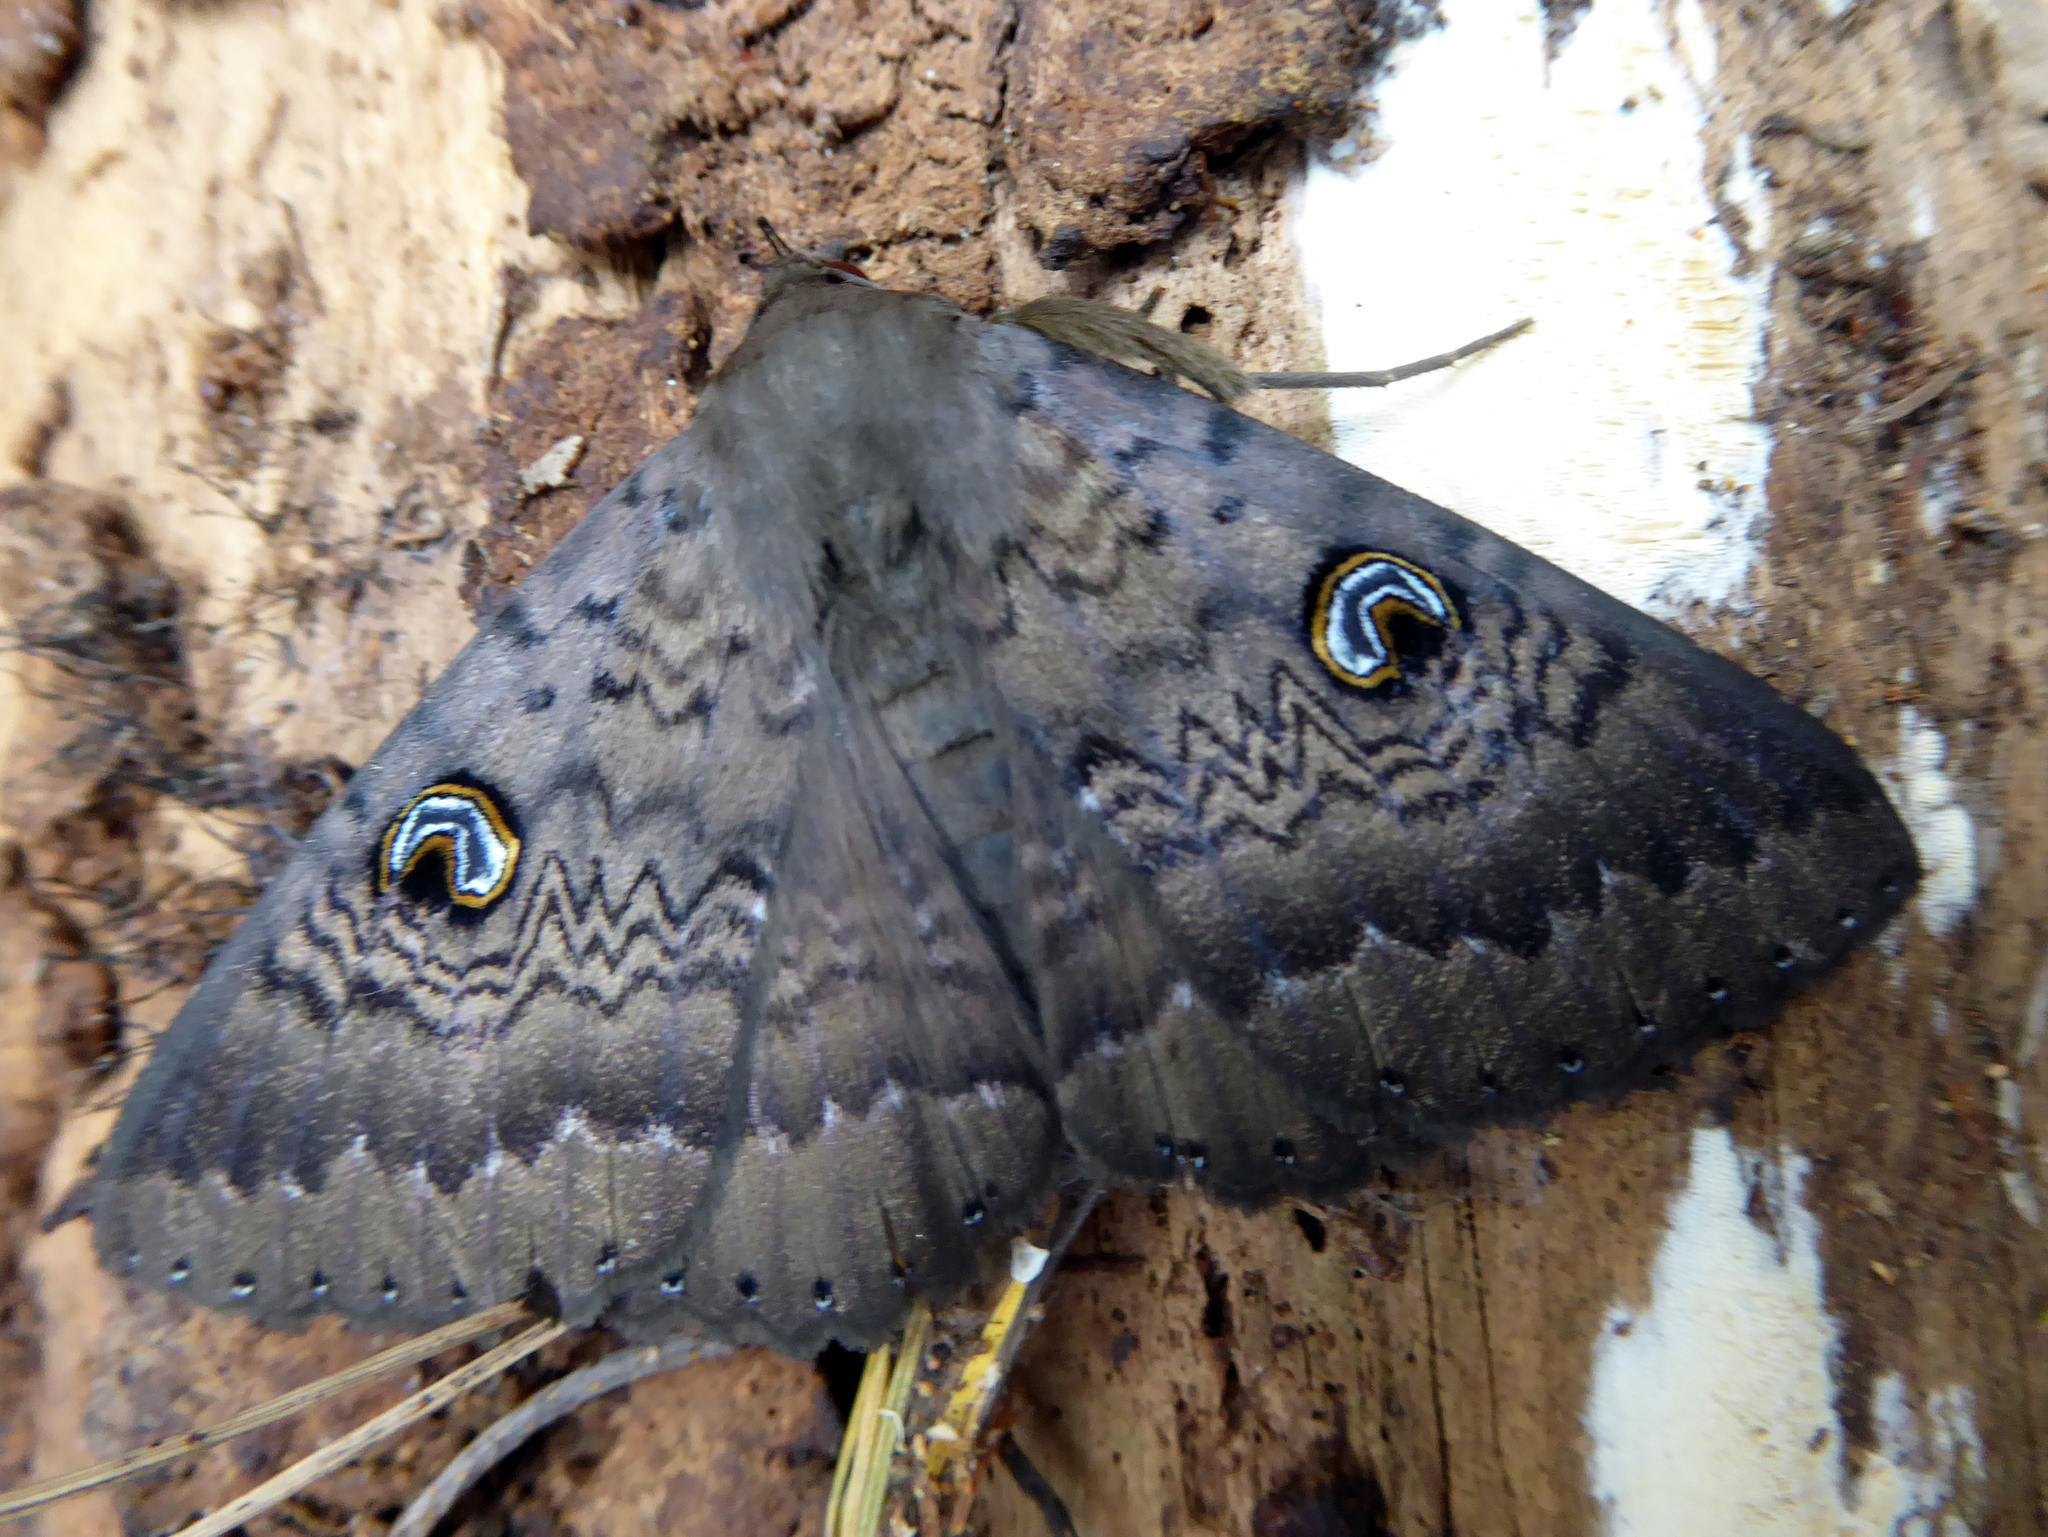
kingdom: Animalia
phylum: Arthropoda
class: Insecta
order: Lepidoptera
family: Erebidae
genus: Dasypodia
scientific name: Dasypodia cymatodes
